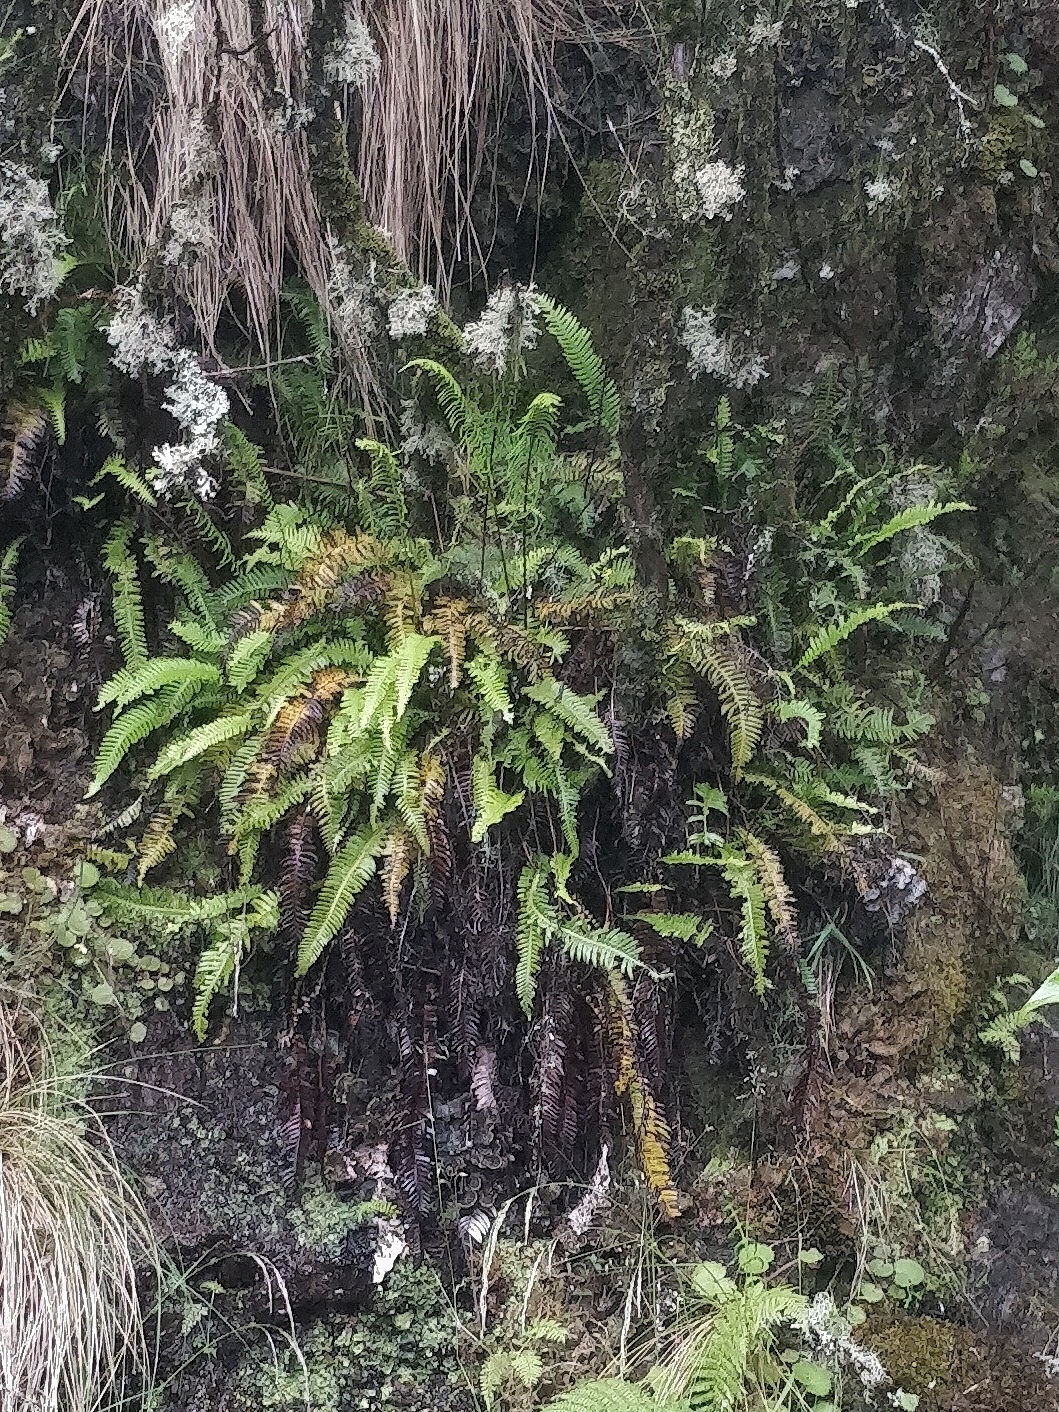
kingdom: Plantae
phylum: Tracheophyta
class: Polypodiopsida
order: Polypodiales
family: Blechnaceae
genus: Struthiopteris
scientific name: Struthiopteris spicant
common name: Deer fern
